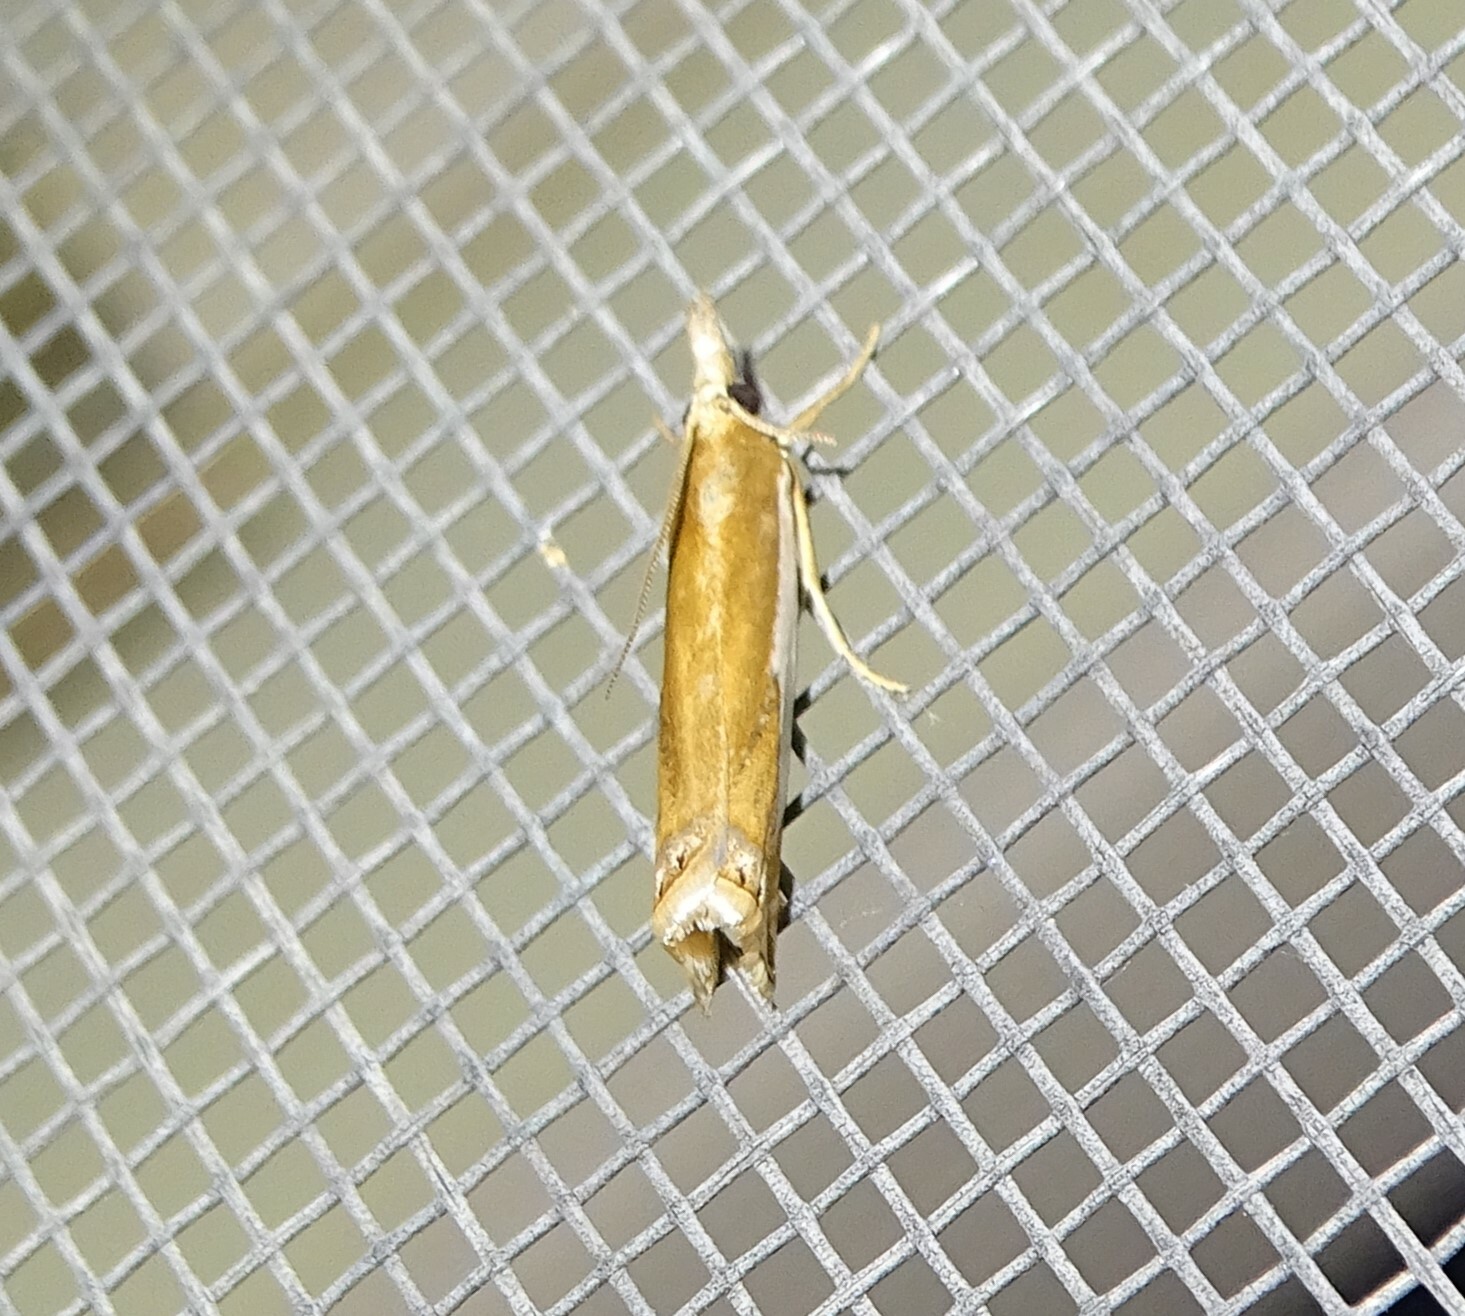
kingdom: Animalia
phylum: Arthropoda
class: Insecta
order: Lepidoptera
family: Crambidae
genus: Crambus
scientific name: Crambus
